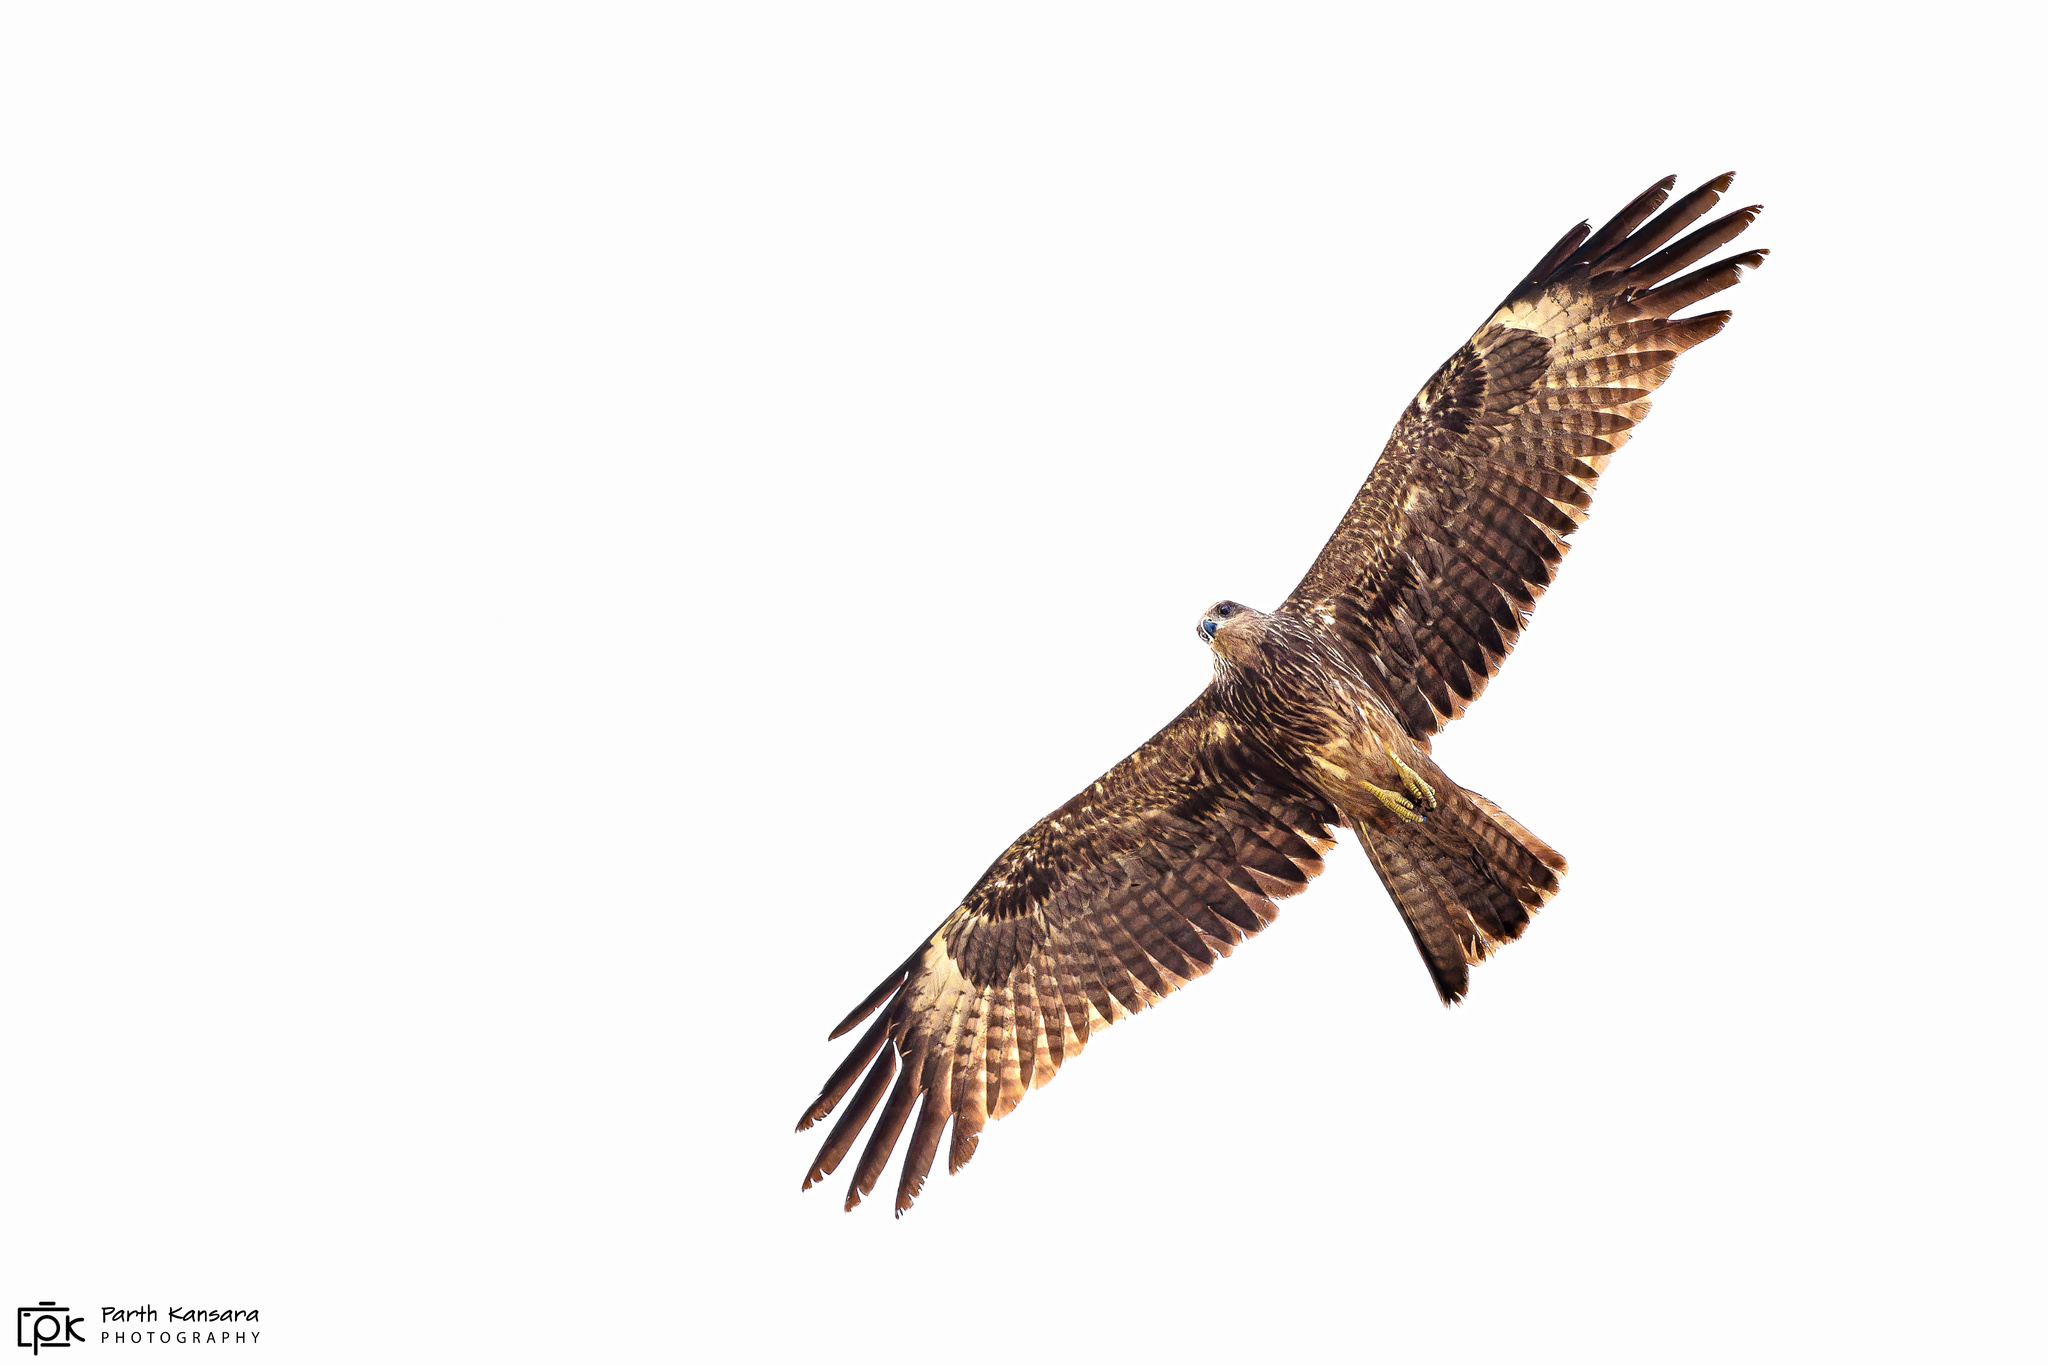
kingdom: Animalia
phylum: Chordata
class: Aves
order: Accipitriformes
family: Accipitridae
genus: Milvus
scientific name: Milvus migrans
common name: Black kite
